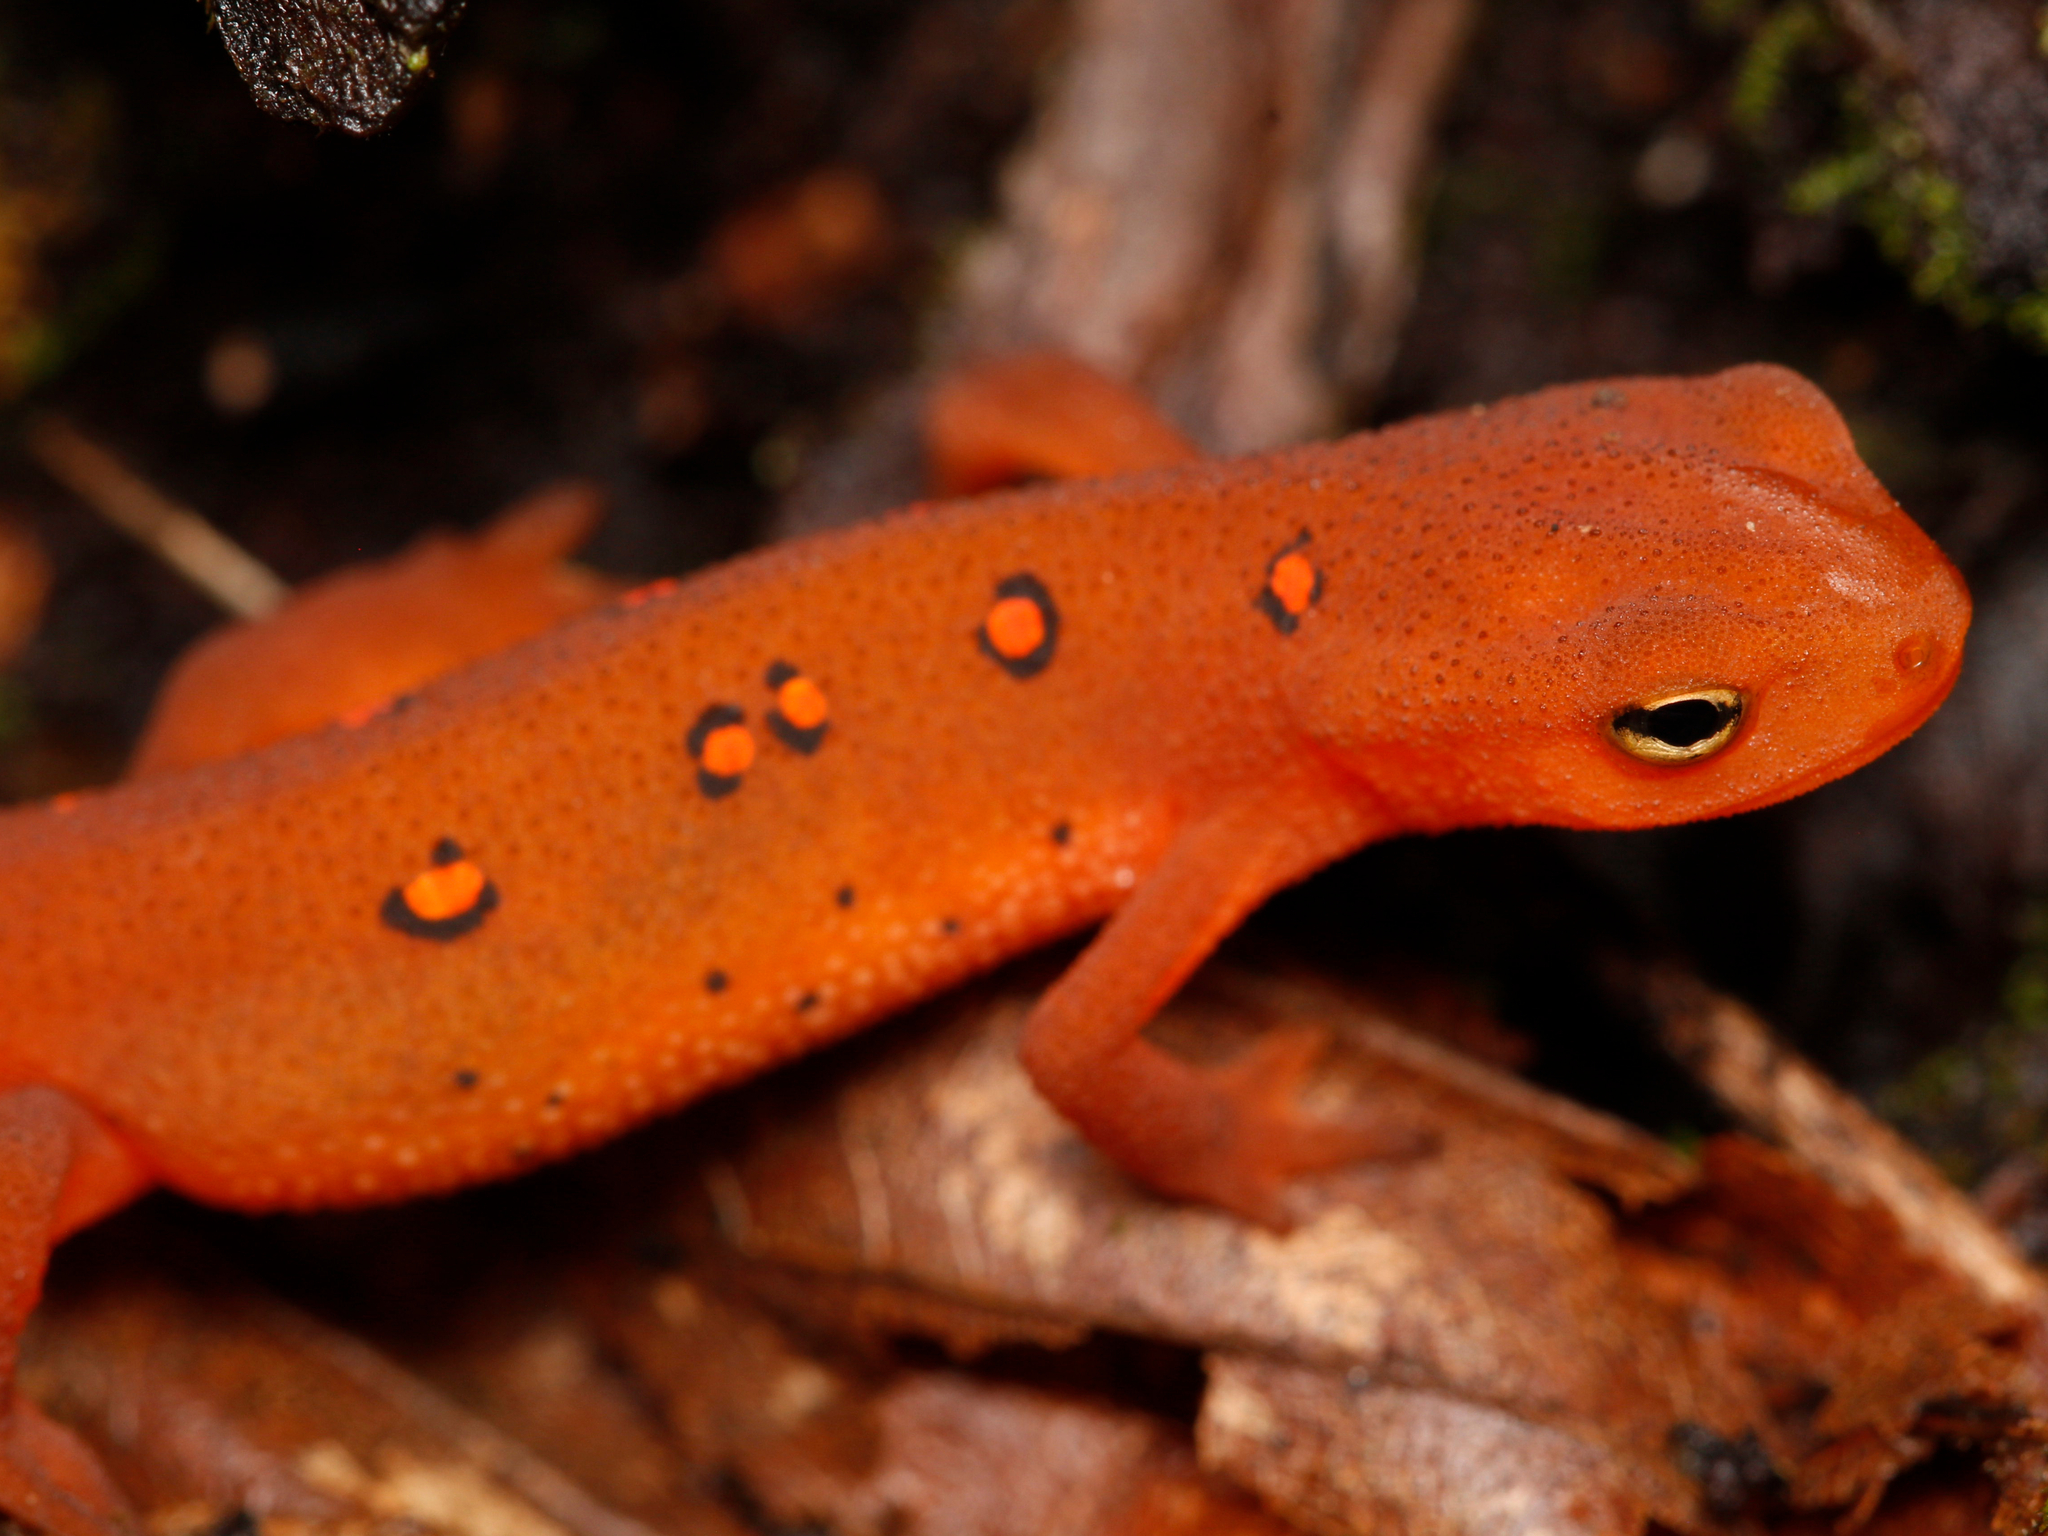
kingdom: Animalia
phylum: Chordata
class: Amphibia
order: Caudata
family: Salamandridae
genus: Notophthalmus
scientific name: Notophthalmus viridescens
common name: Eastern newt
